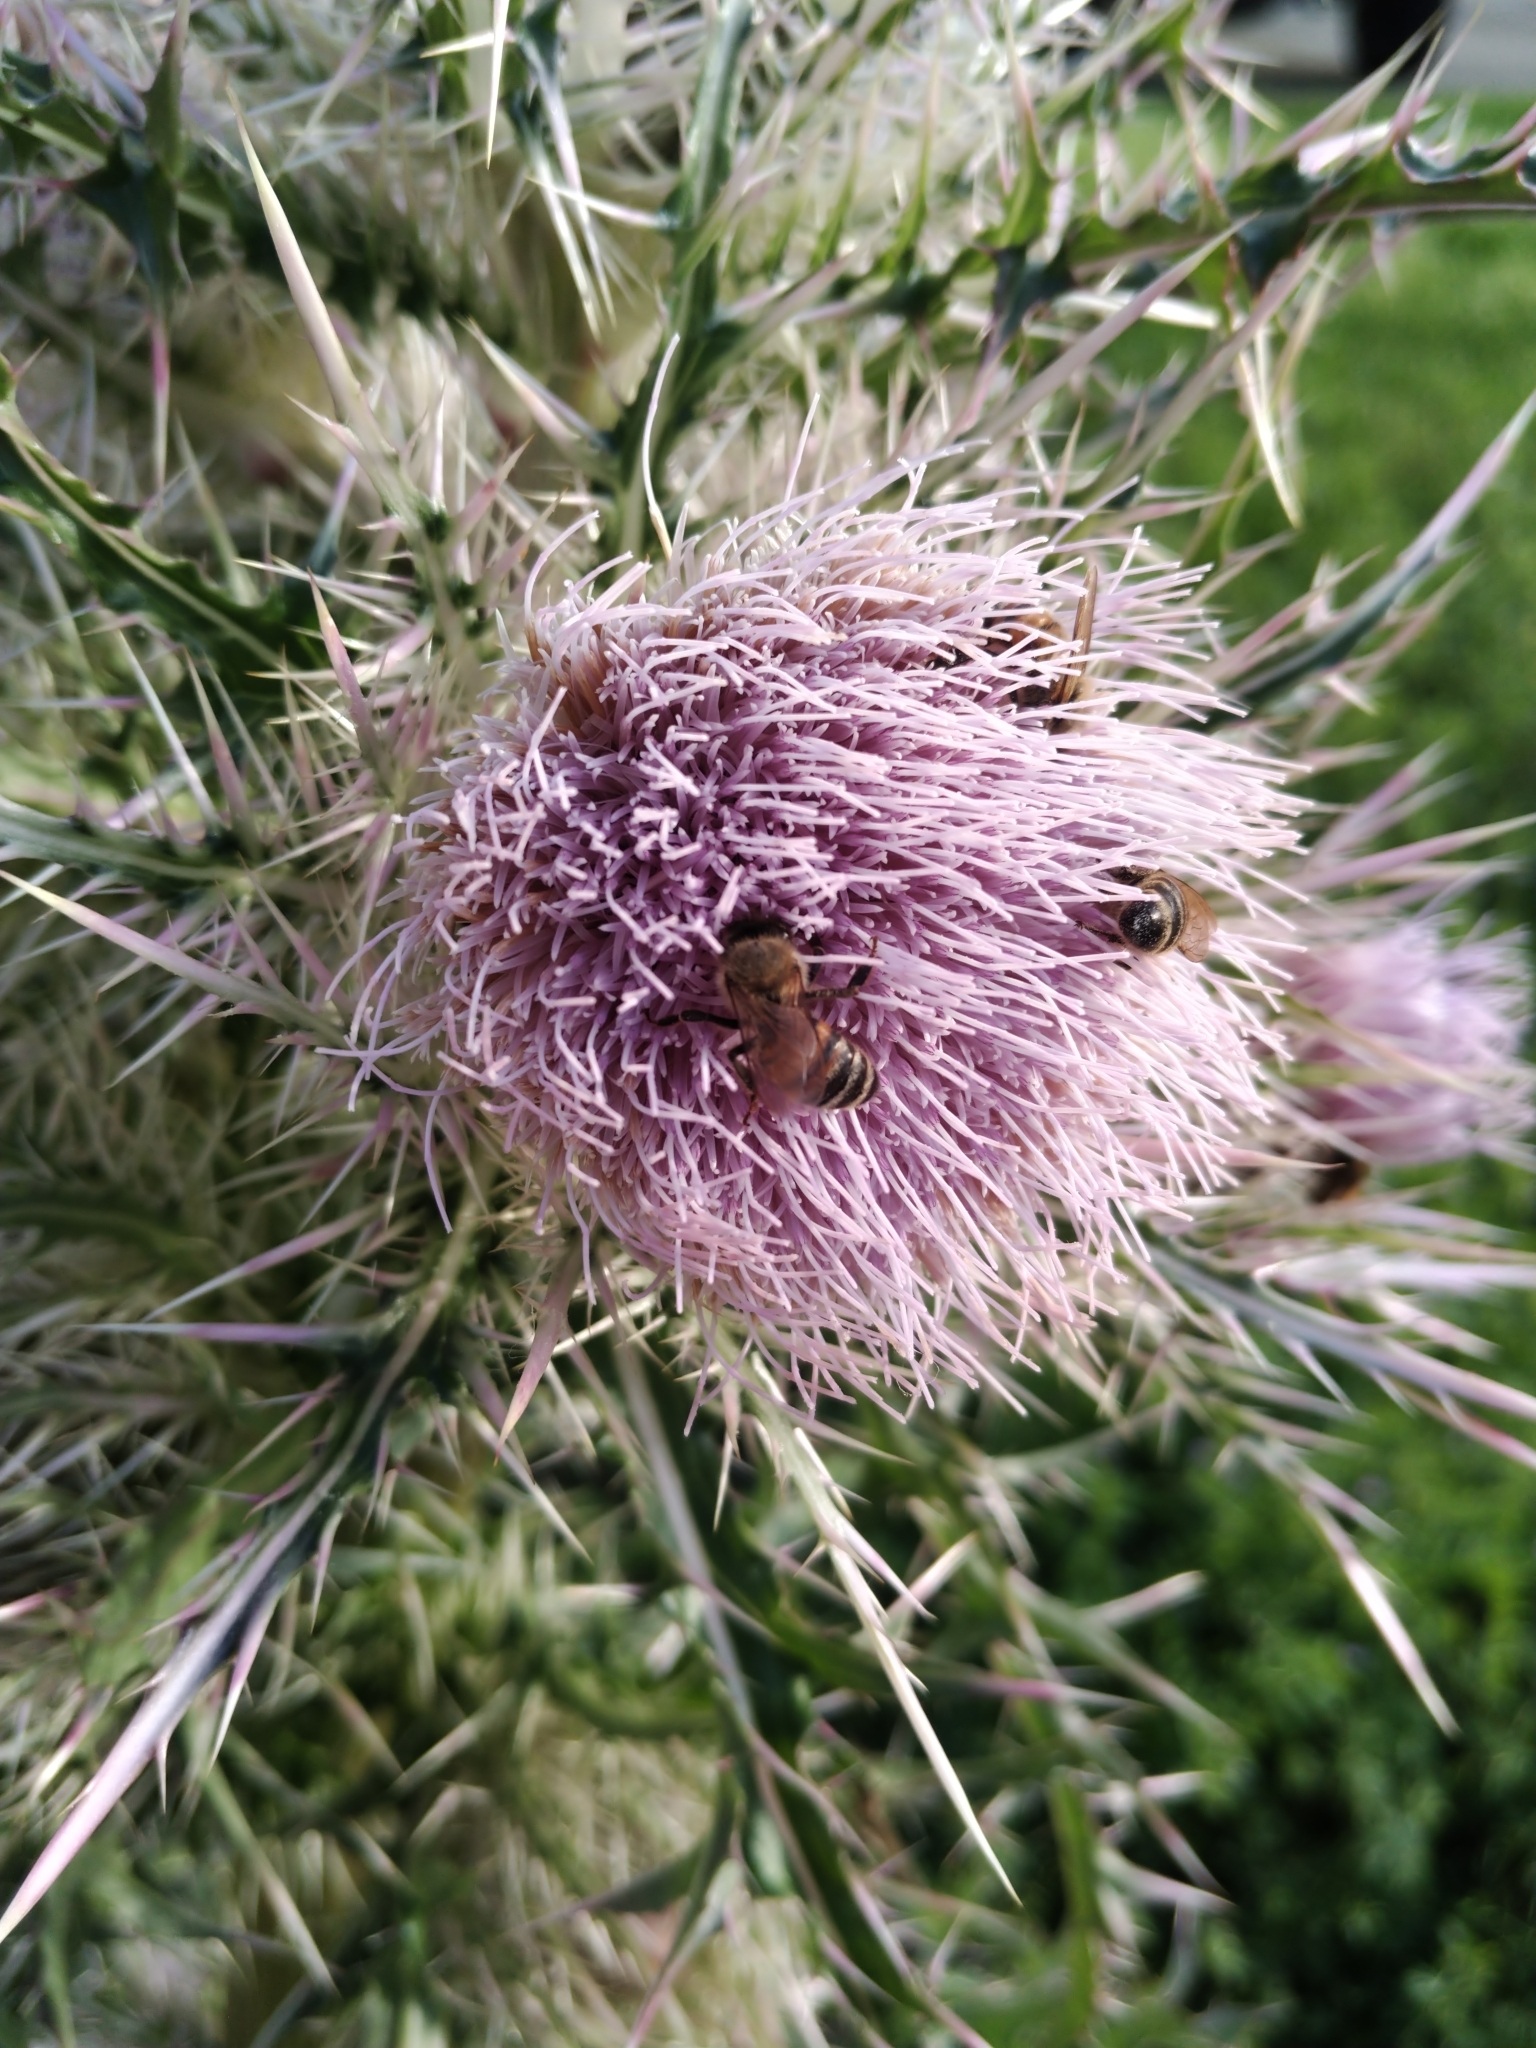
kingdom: Animalia
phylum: Arthropoda
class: Insecta
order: Hymenoptera
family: Apidae
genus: Apis
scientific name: Apis mellifera
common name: Honey bee
